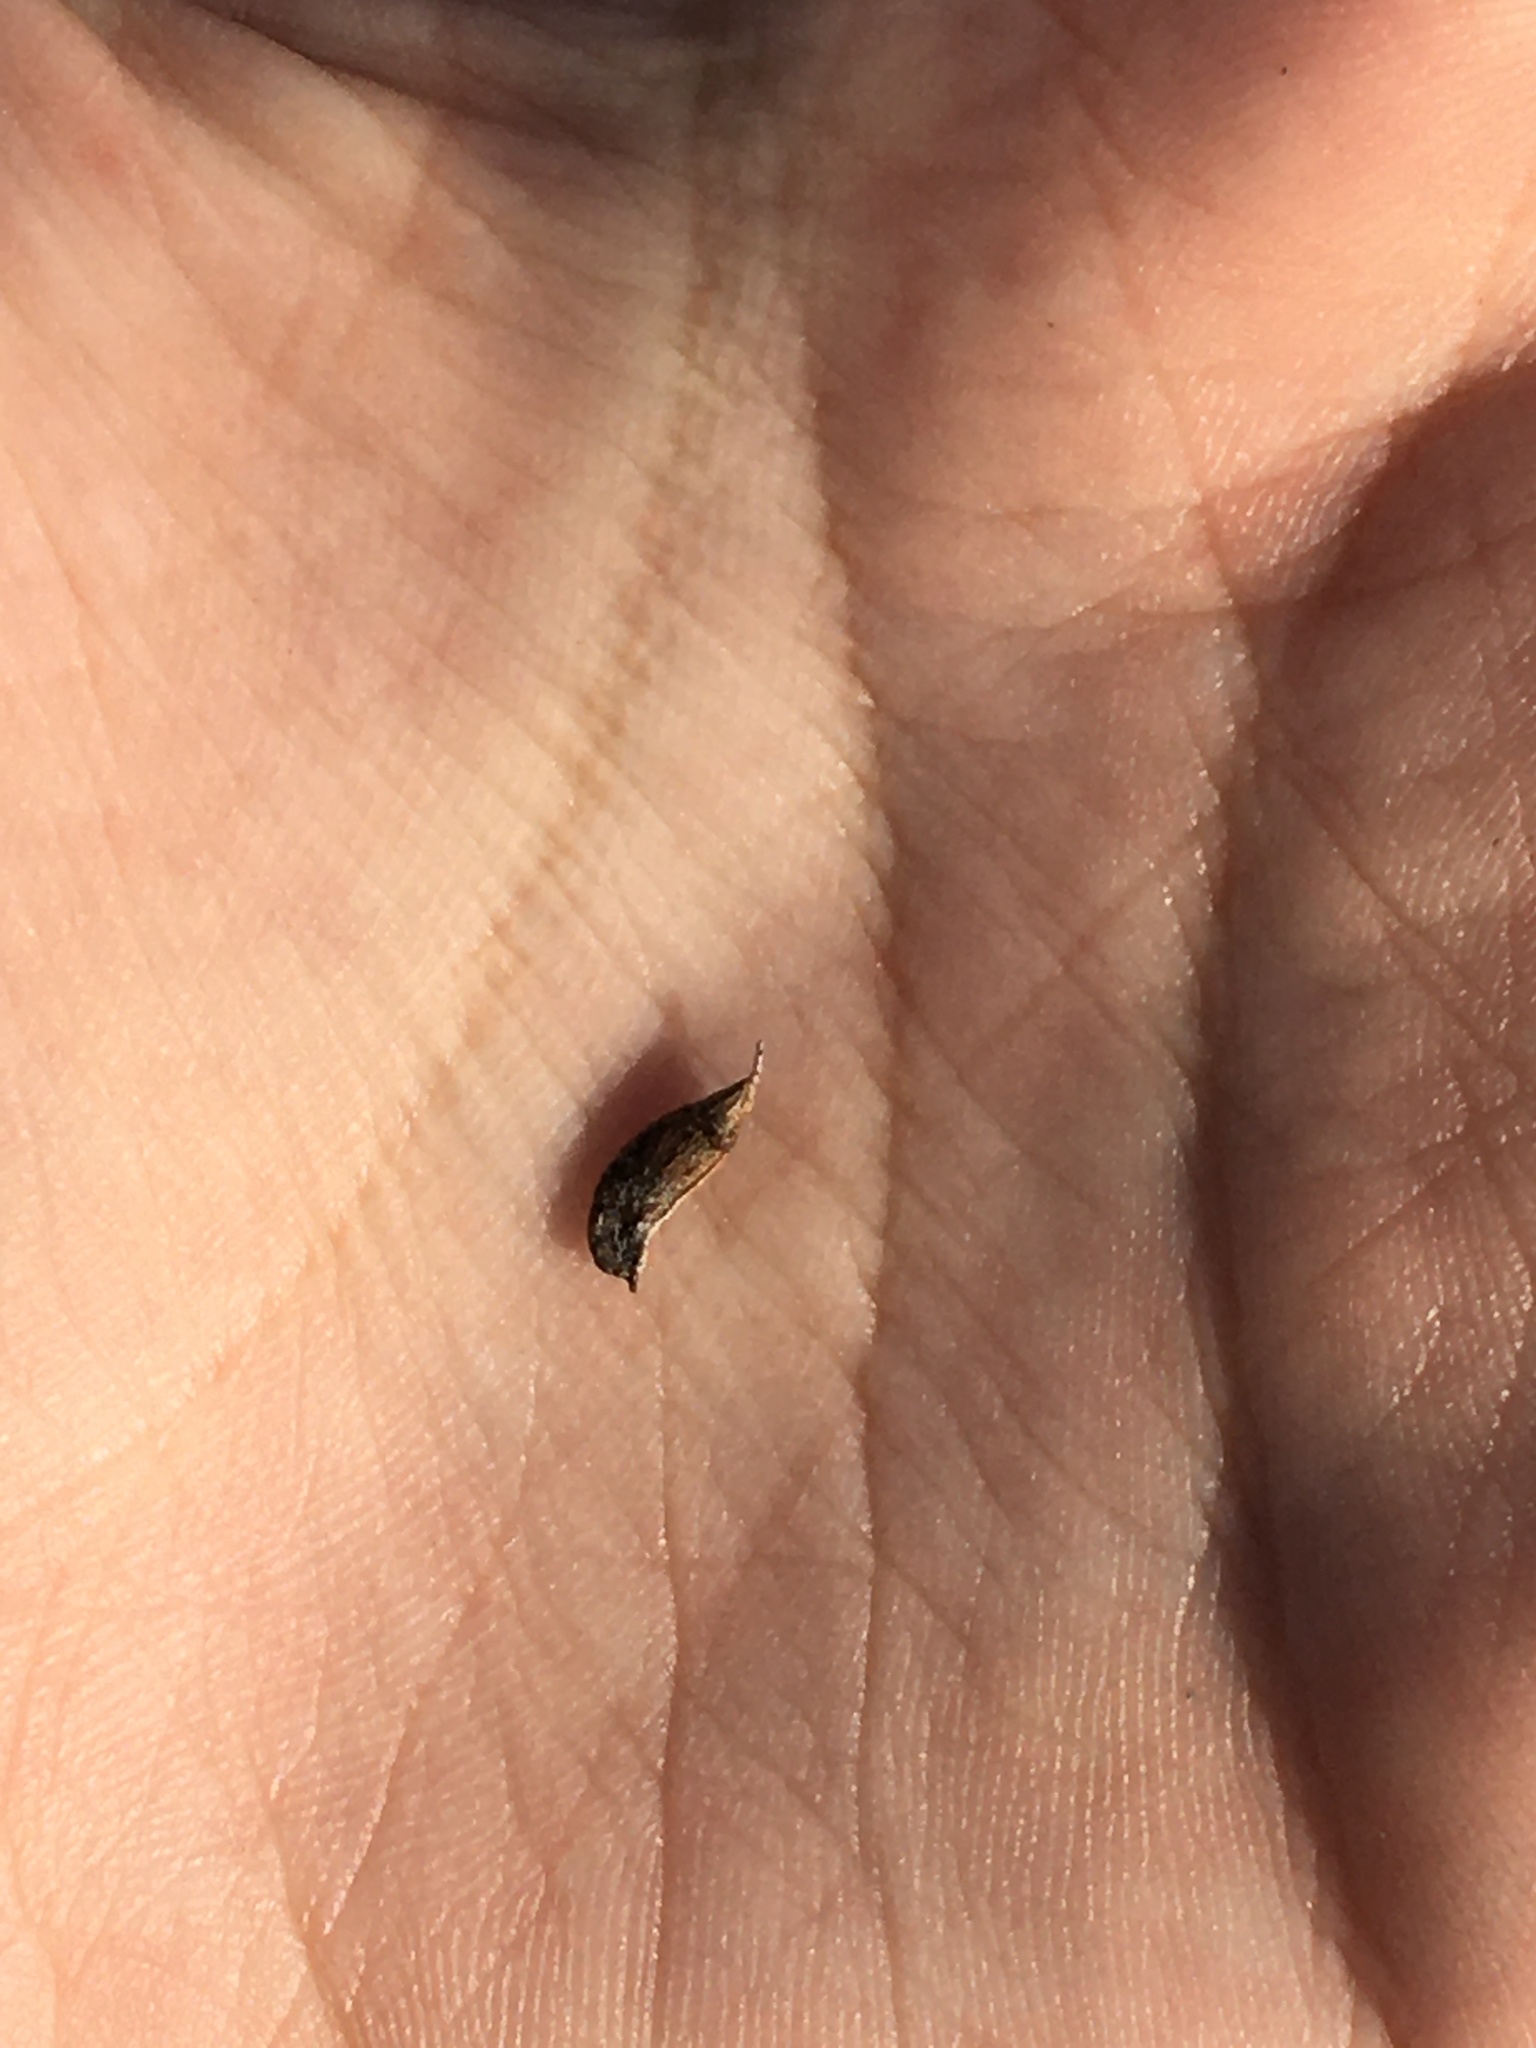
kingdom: Plantae
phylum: Tracheophyta
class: Magnoliopsida
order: Fabales
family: Fabaceae
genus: Amorpha
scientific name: Amorpha fruticosa
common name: False indigo
